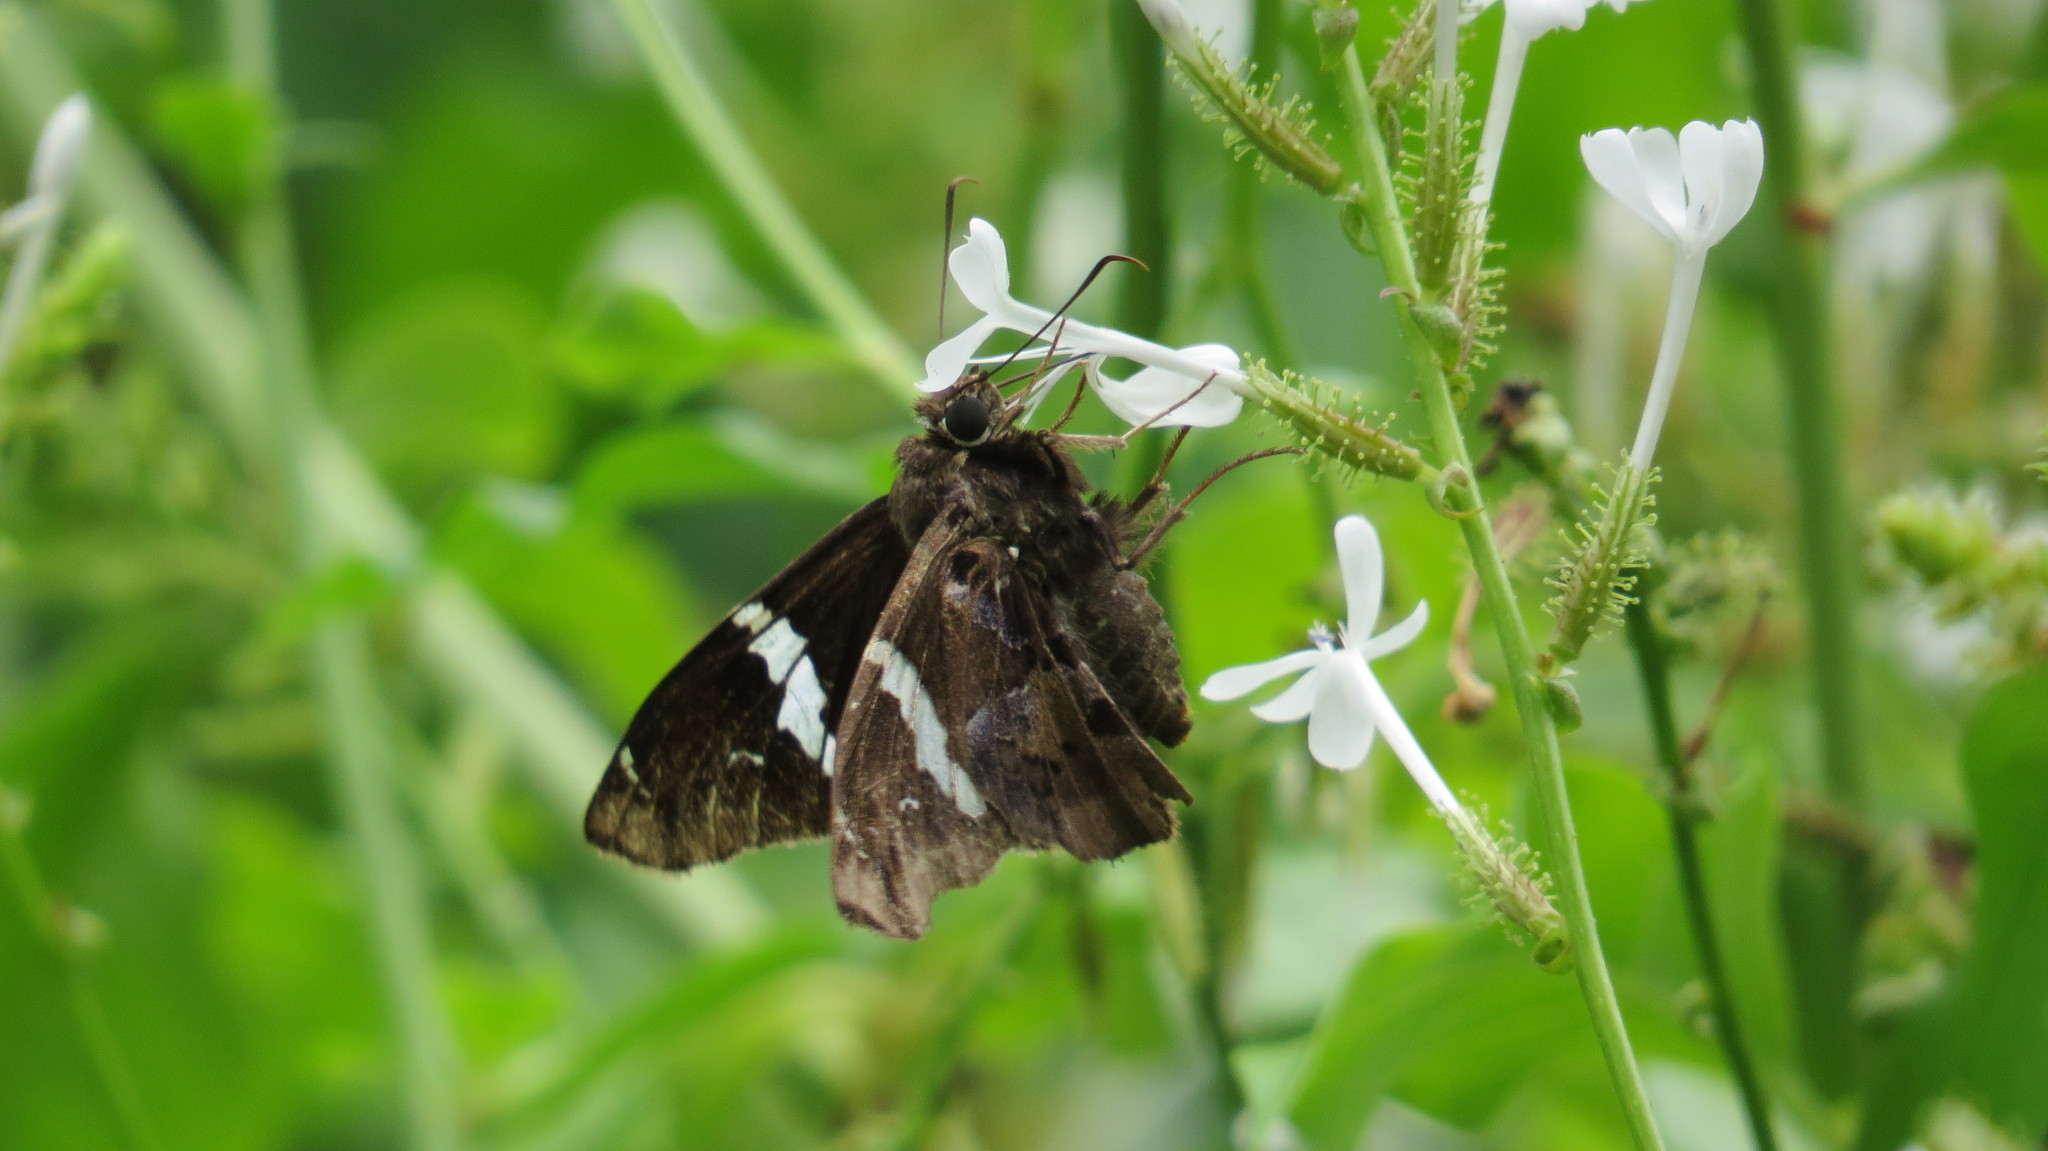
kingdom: Animalia
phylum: Arthropoda
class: Insecta
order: Lepidoptera
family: Hesperiidae
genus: Spathilepia
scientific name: Spathilepia clonius
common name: Falcate skipper
